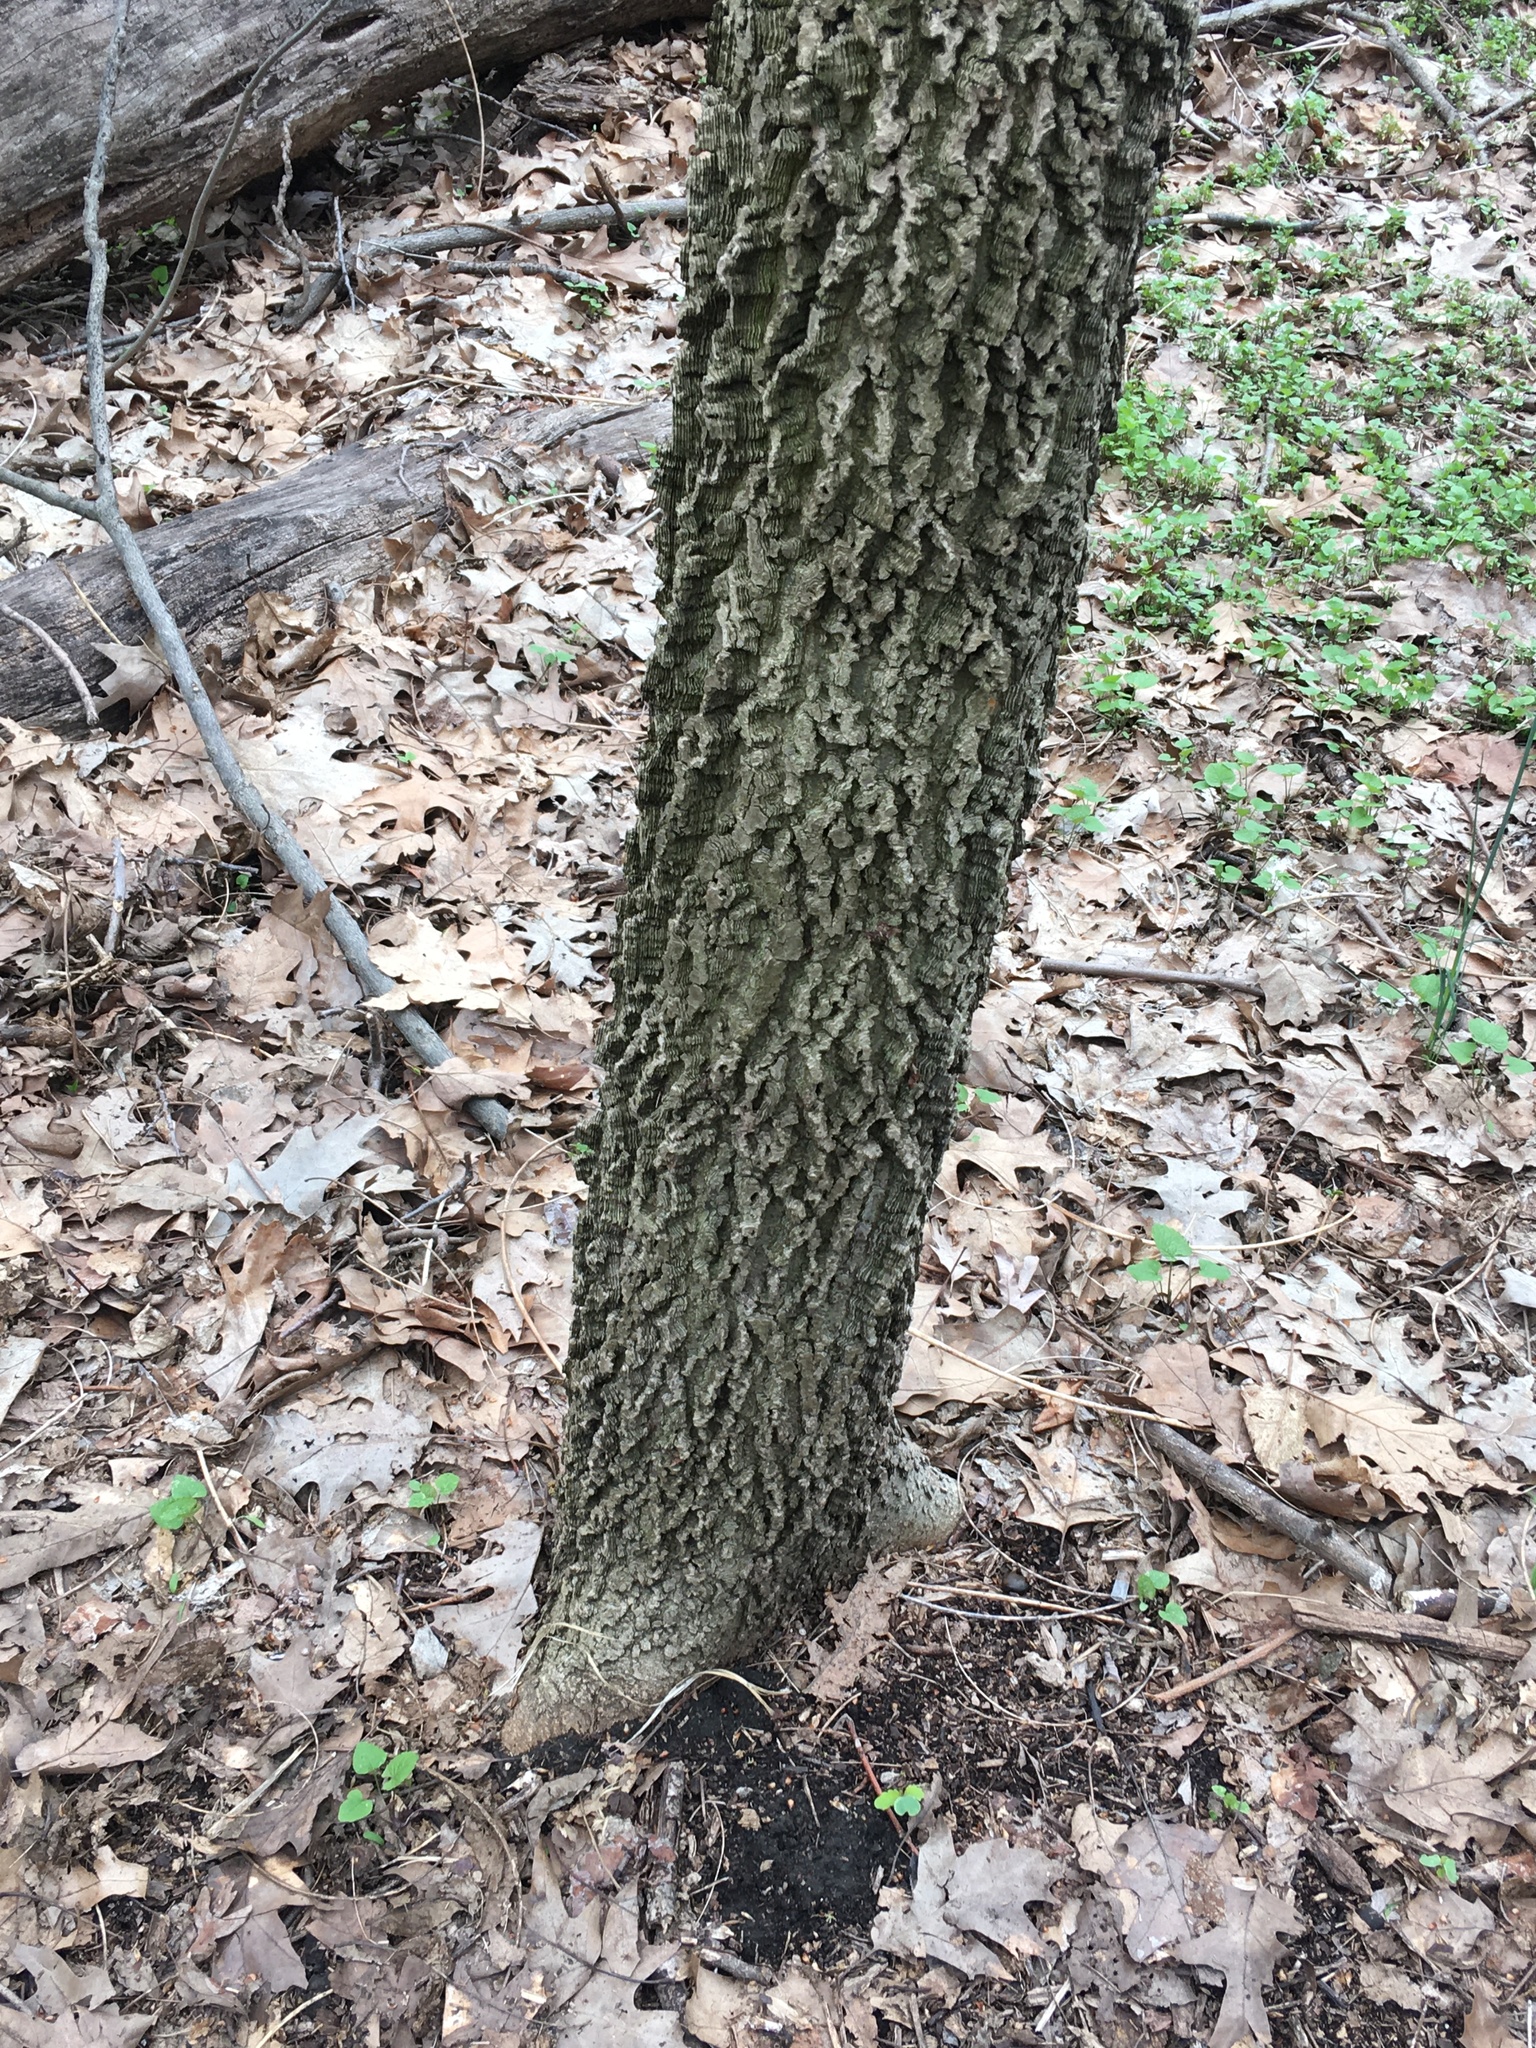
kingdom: Plantae
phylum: Tracheophyta
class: Magnoliopsida
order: Rosales
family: Cannabaceae
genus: Celtis
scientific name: Celtis occidentalis
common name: Common hackberry
